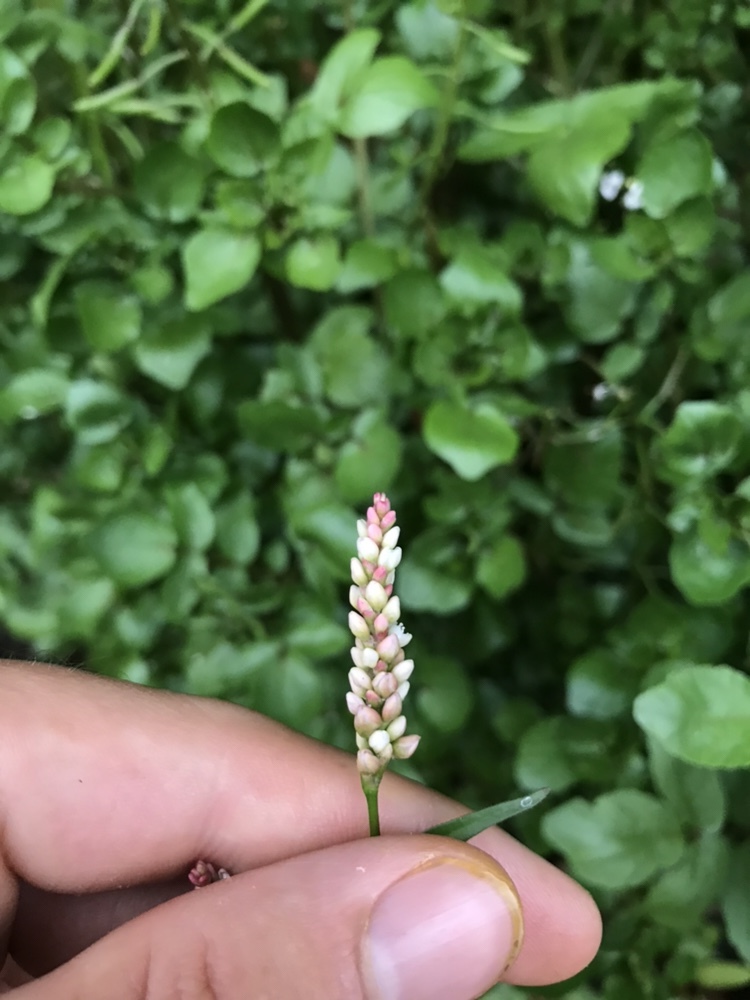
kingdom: Plantae
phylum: Tracheophyta
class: Magnoliopsida
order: Caryophyllales
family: Polygonaceae
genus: Persicaria
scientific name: Persicaria maculosa
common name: Redshank
